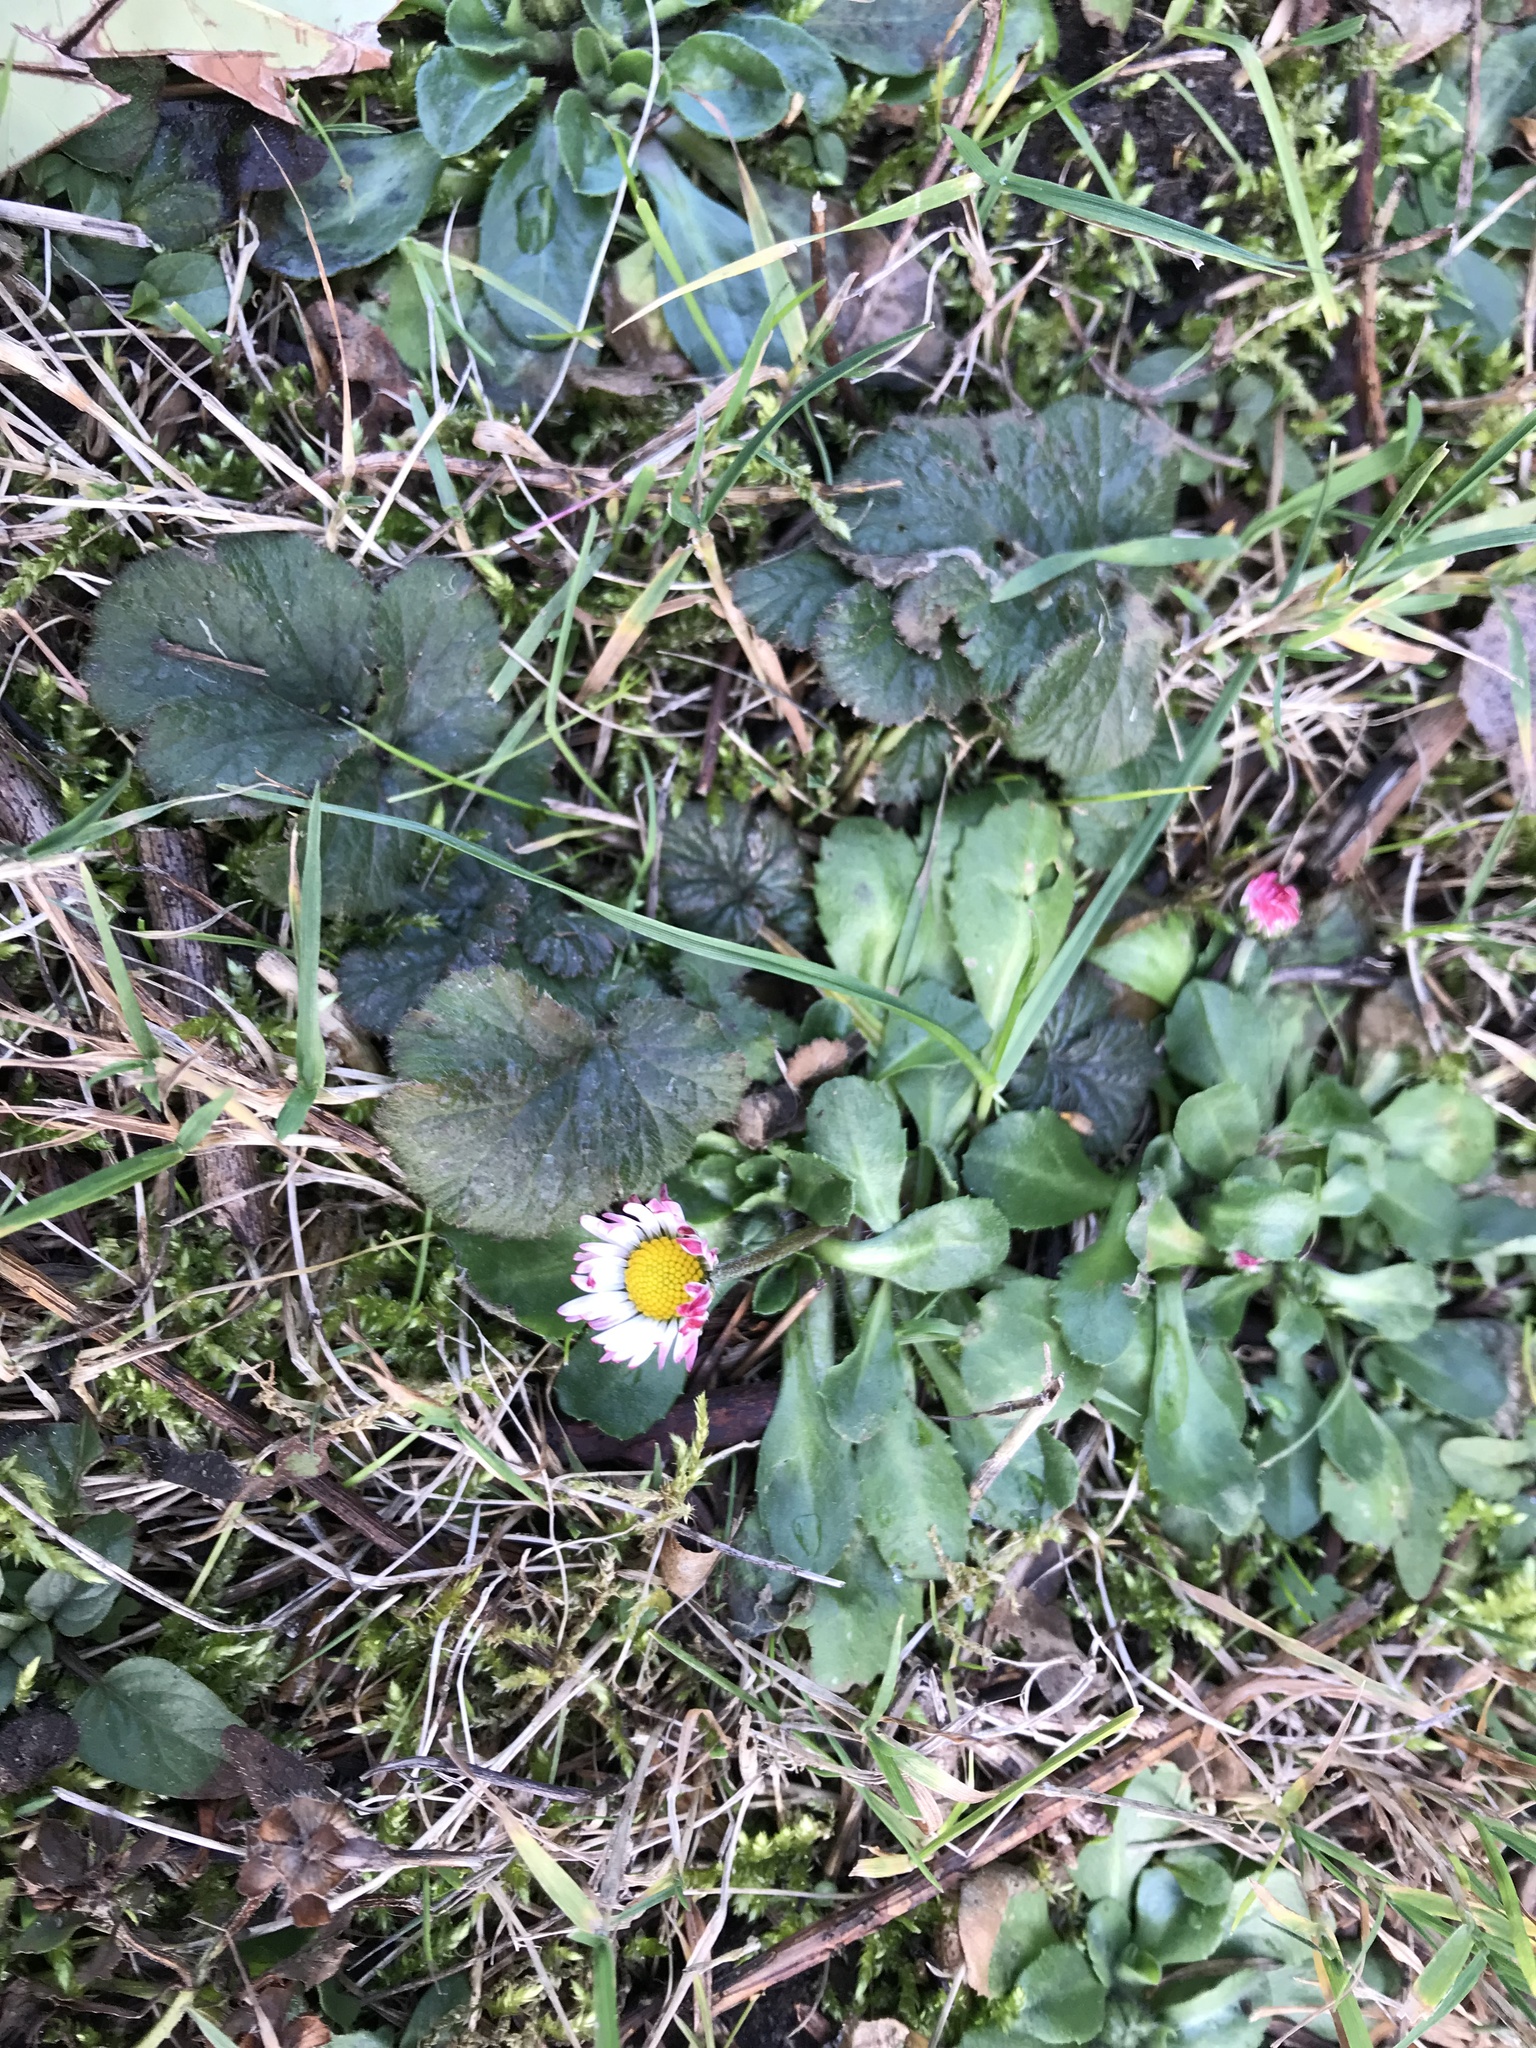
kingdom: Plantae
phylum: Tracheophyta
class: Magnoliopsida
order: Asterales
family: Asteraceae
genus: Bellis
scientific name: Bellis perennis
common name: Lawndaisy
